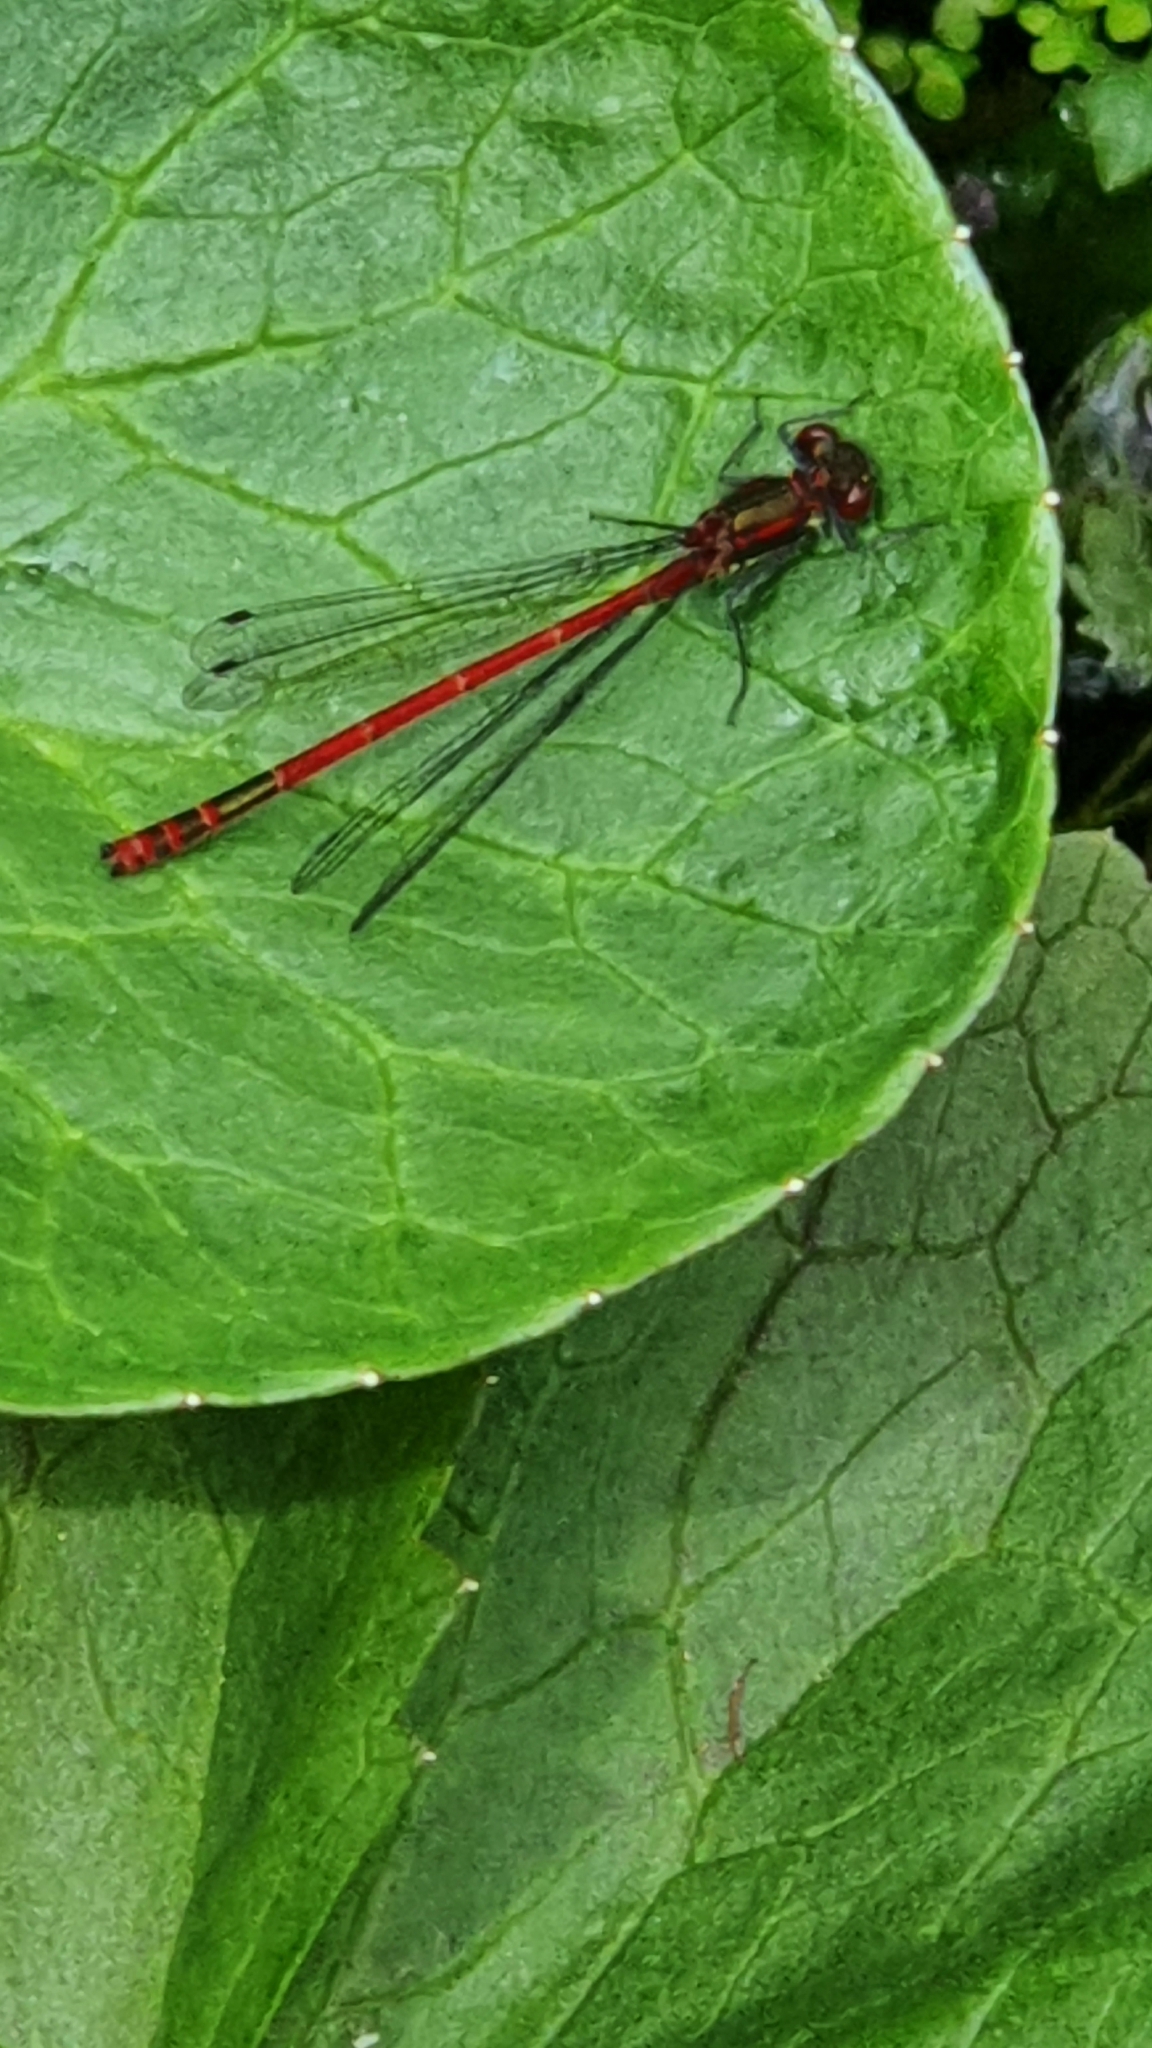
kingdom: Animalia
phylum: Arthropoda
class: Insecta
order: Odonata
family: Coenagrionidae
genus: Pyrrhosoma
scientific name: Pyrrhosoma nymphula
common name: Large red damsel
